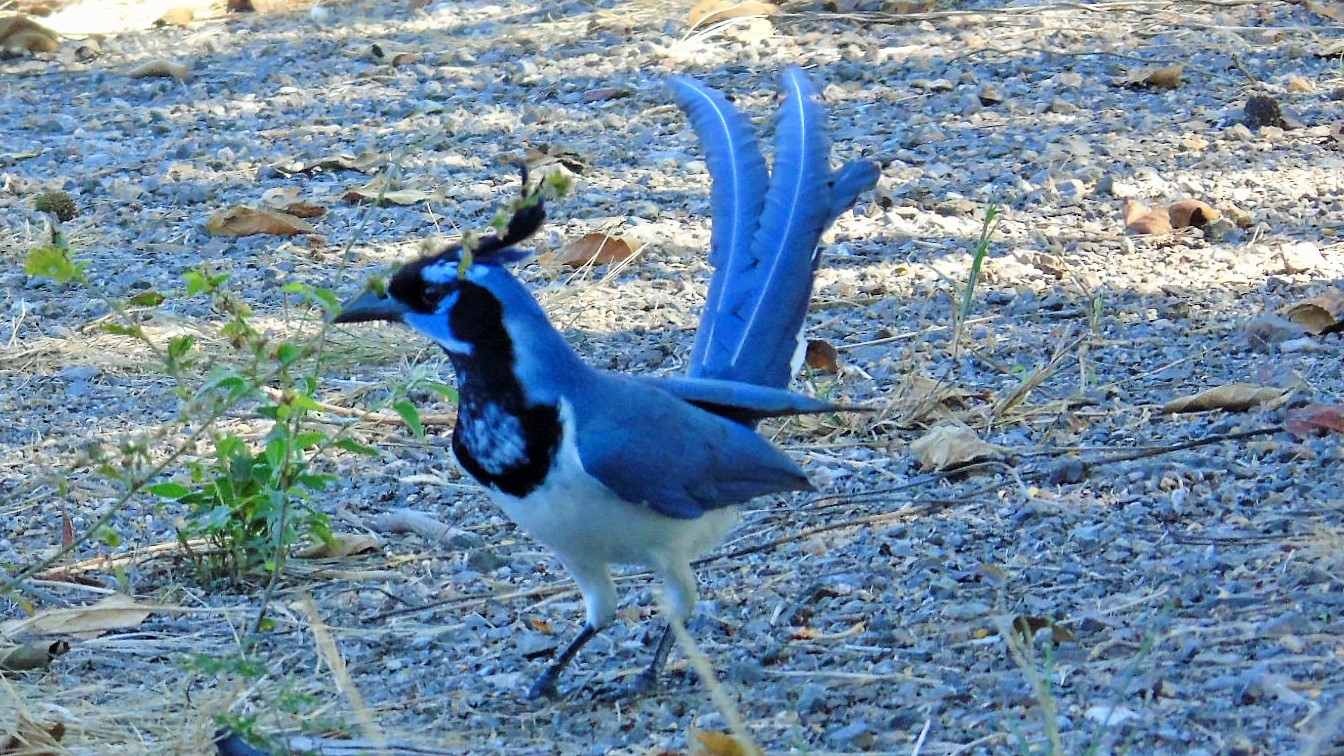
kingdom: Animalia
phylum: Chordata
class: Aves
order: Passeriformes
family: Corvidae
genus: Calocitta
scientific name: Calocitta colliei
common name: Black-throated magpie-jay
